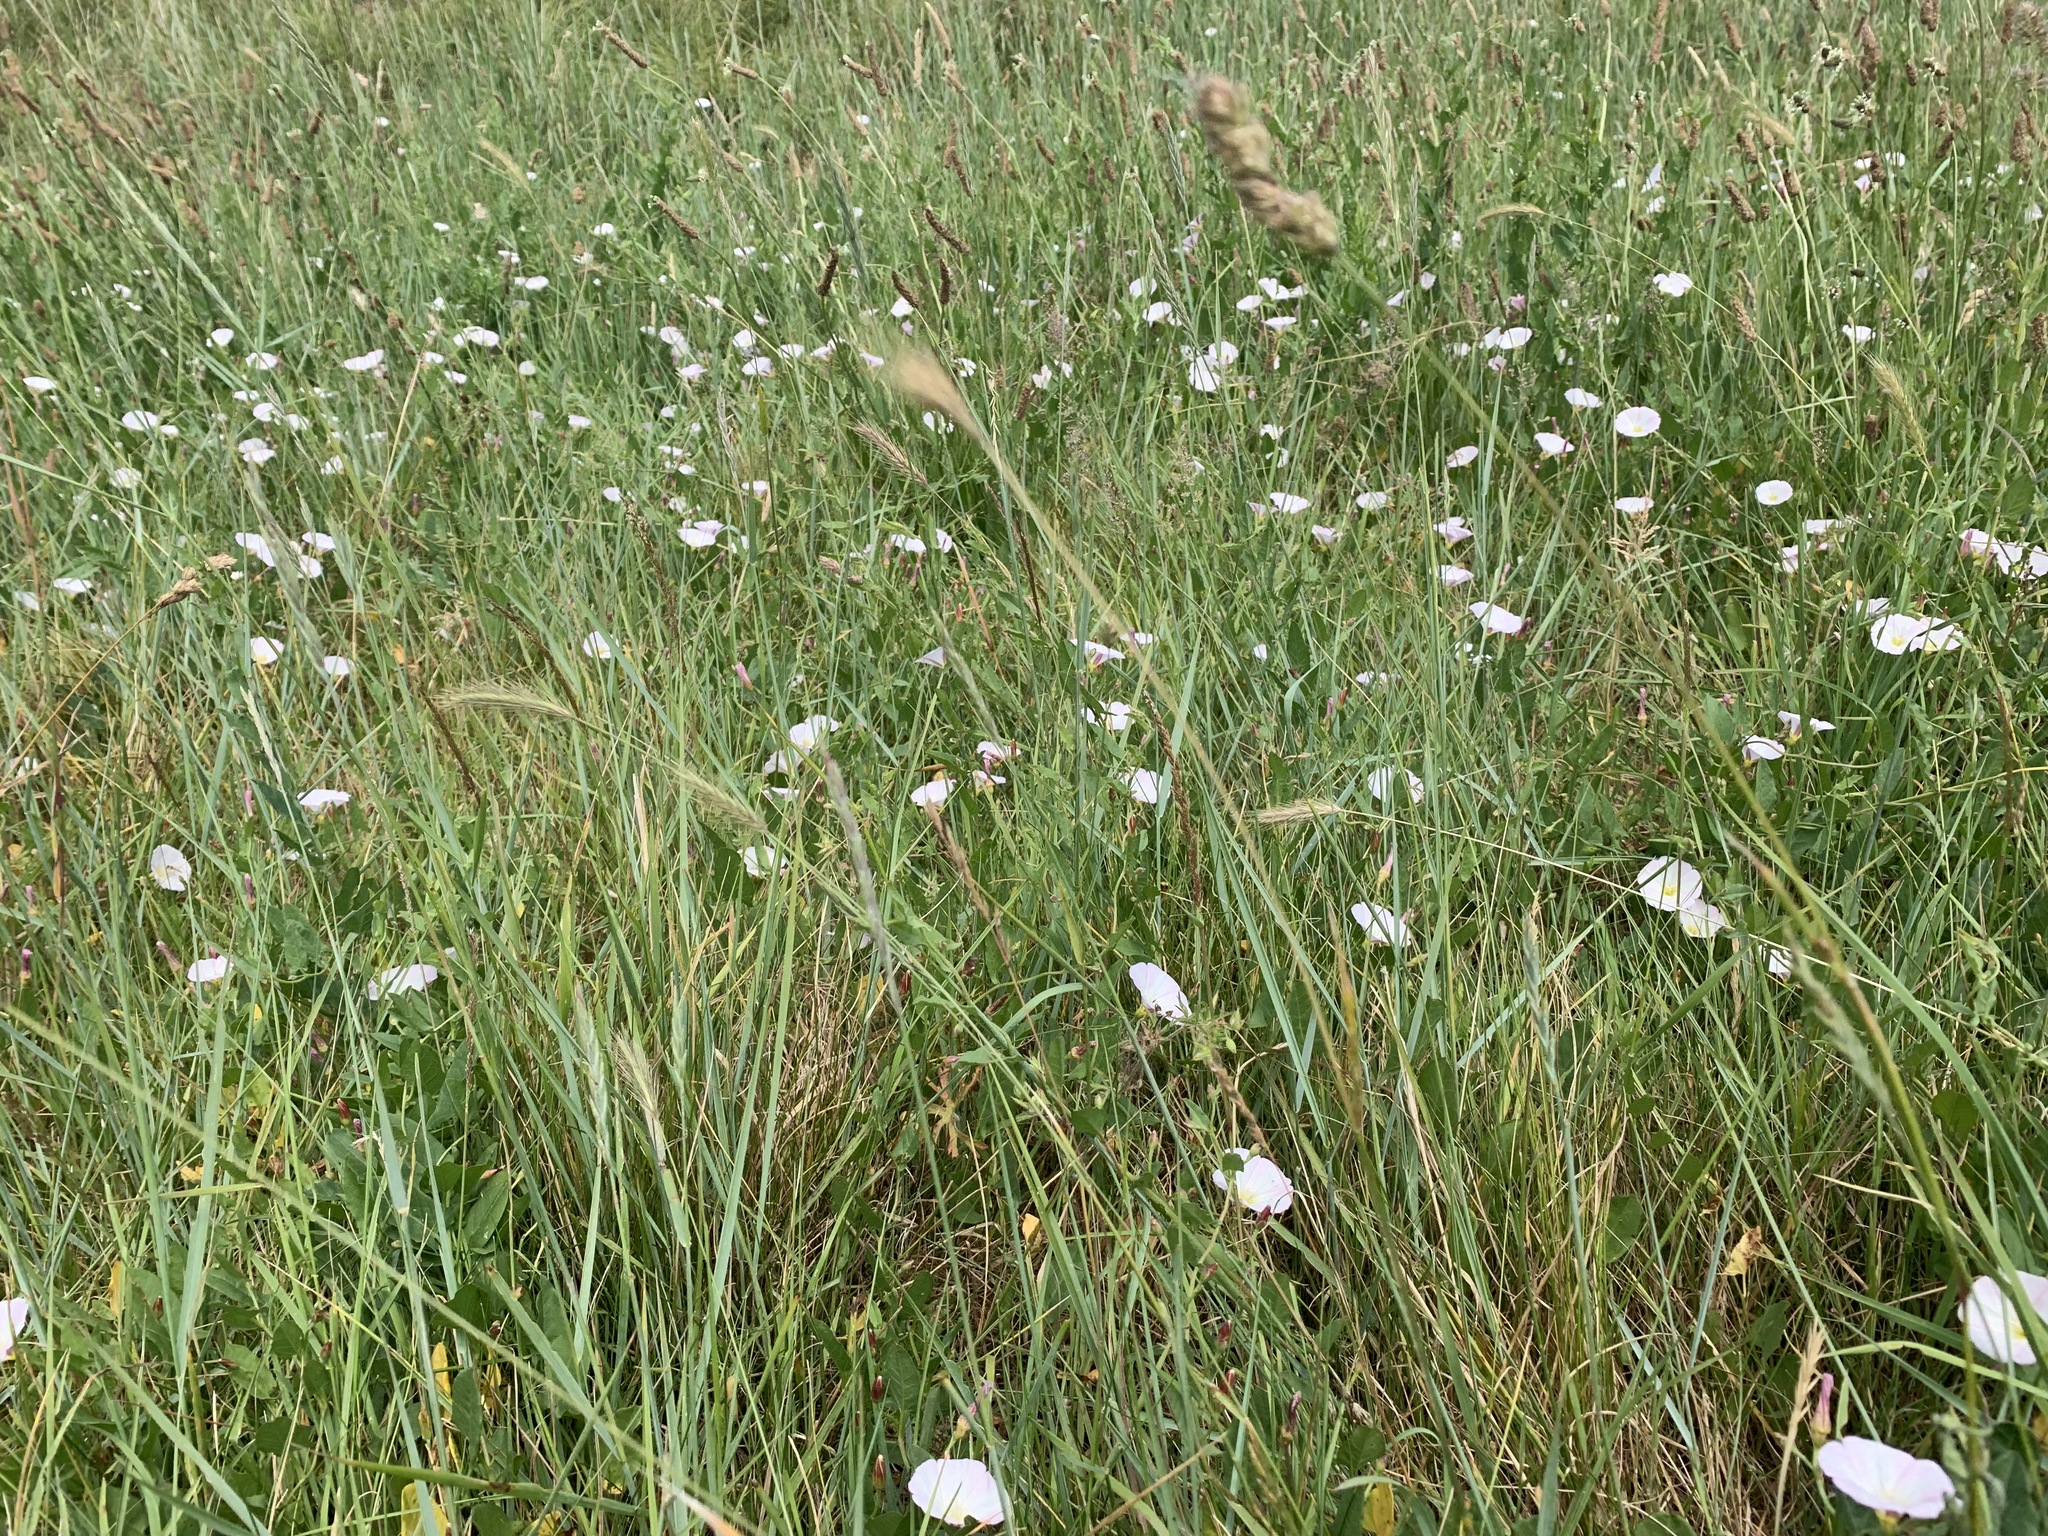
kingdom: Plantae
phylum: Tracheophyta
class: Magnoliopsida
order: Solanales
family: Convolvulaceae
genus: Convolvulus
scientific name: Convolvulus arvensis
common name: Field bindweed
